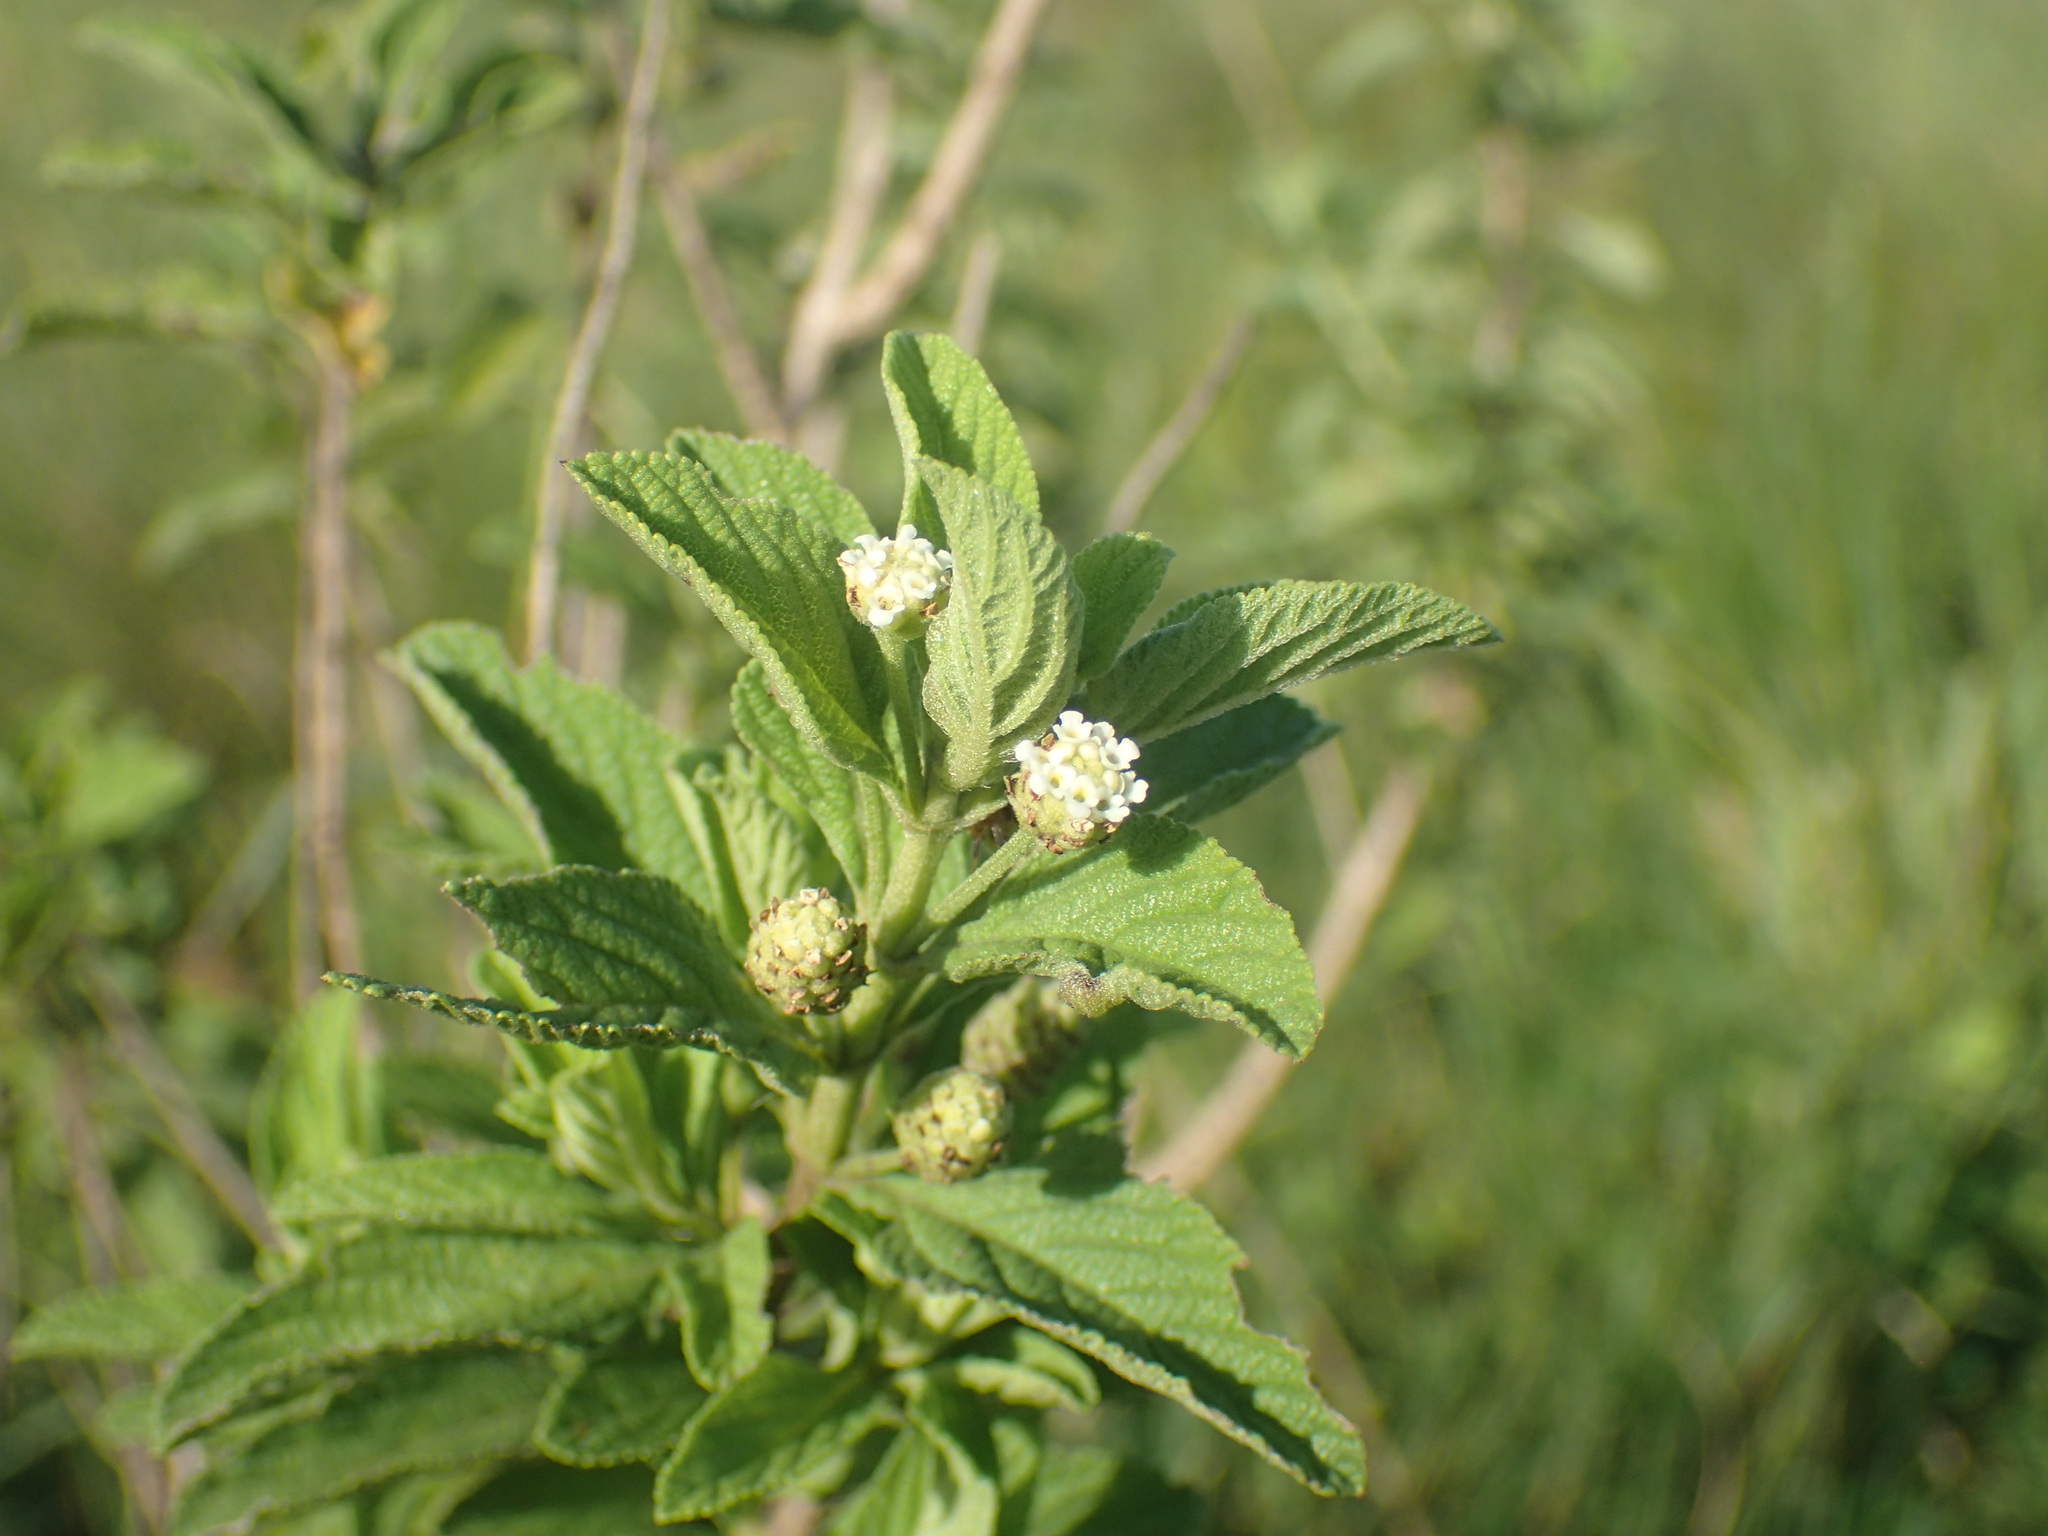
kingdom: Plantae
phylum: Tracheophyta
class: Magnoliopsida
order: Lamiales
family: Verbenaceae
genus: Lippia
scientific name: Lippia javanica
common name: Lemonbush
